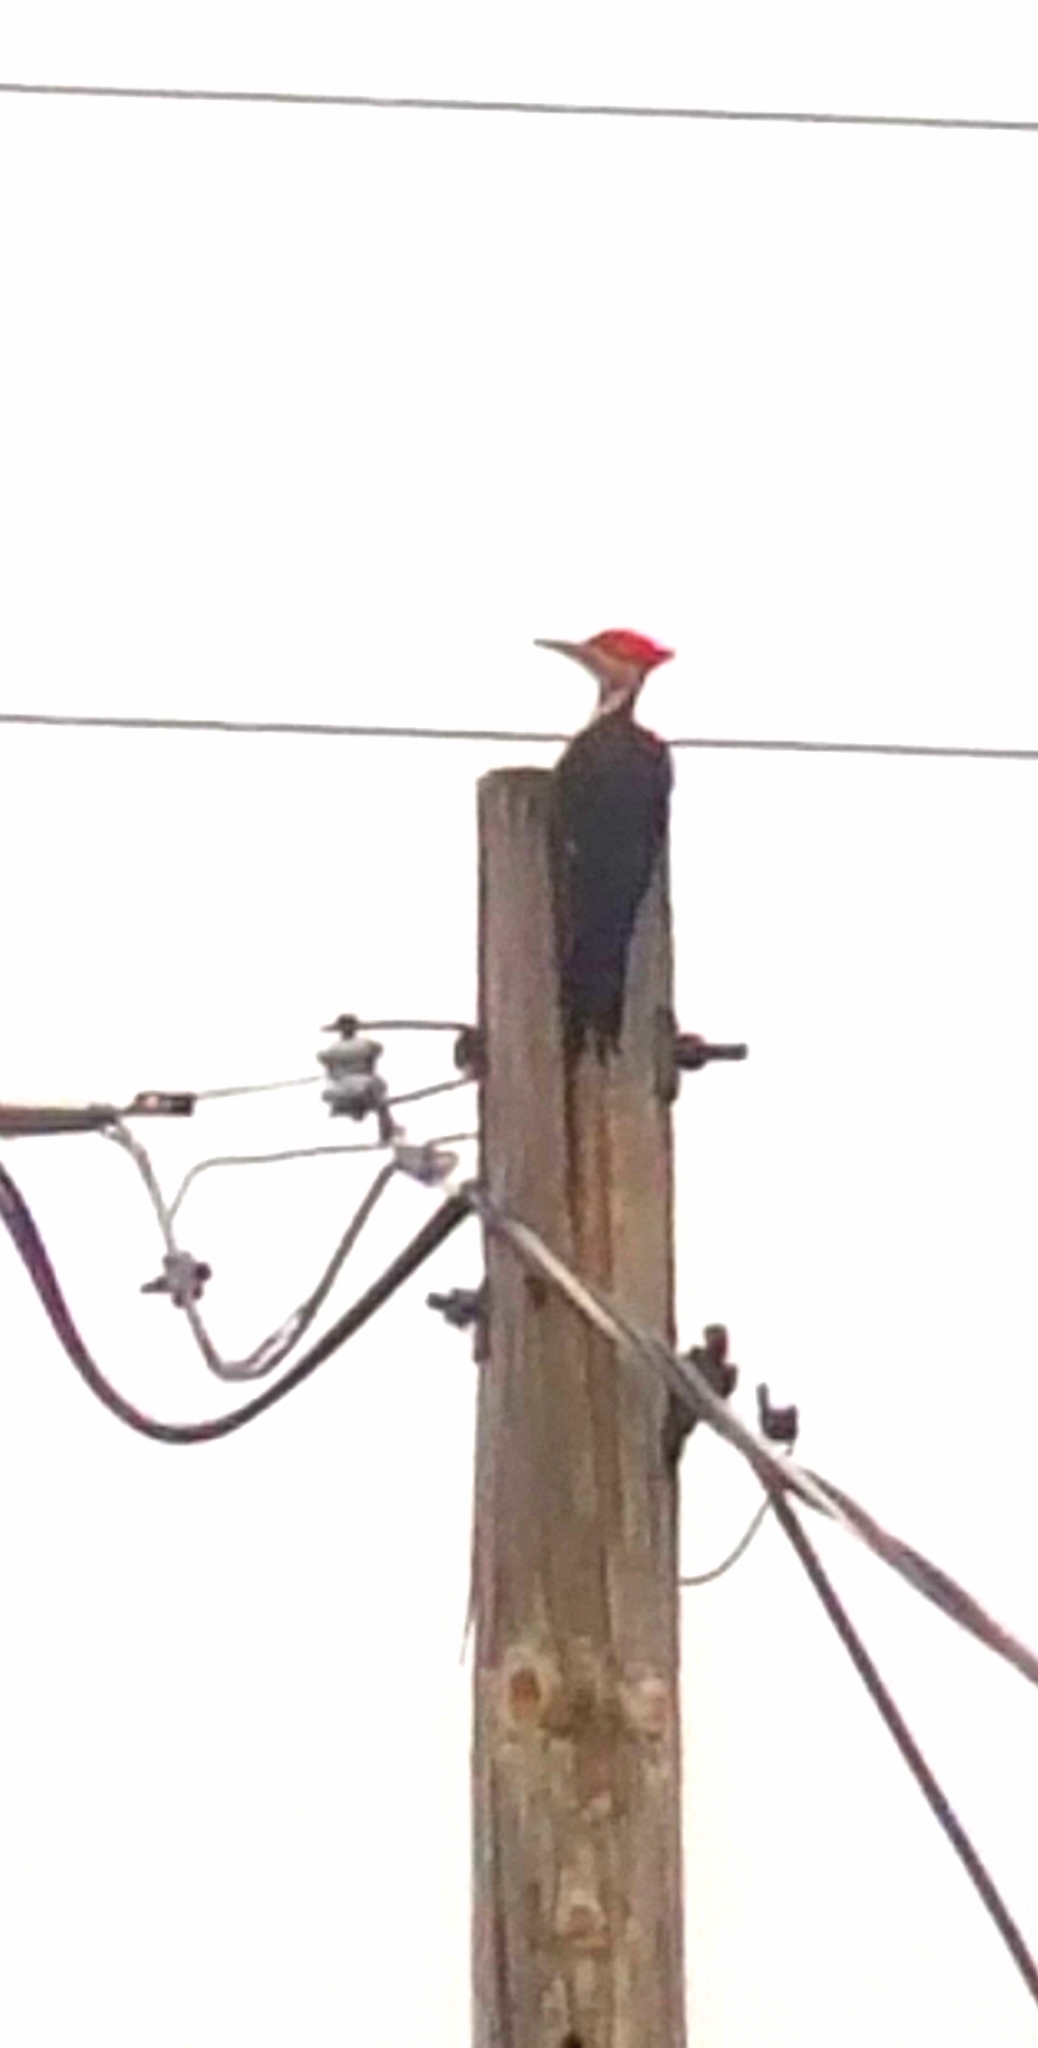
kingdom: Animalia
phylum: Chordata
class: Aves
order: Piciformes
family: Picidae
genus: Dryocopus
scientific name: Dryocopus pileatus
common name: Pileated woodpecker
